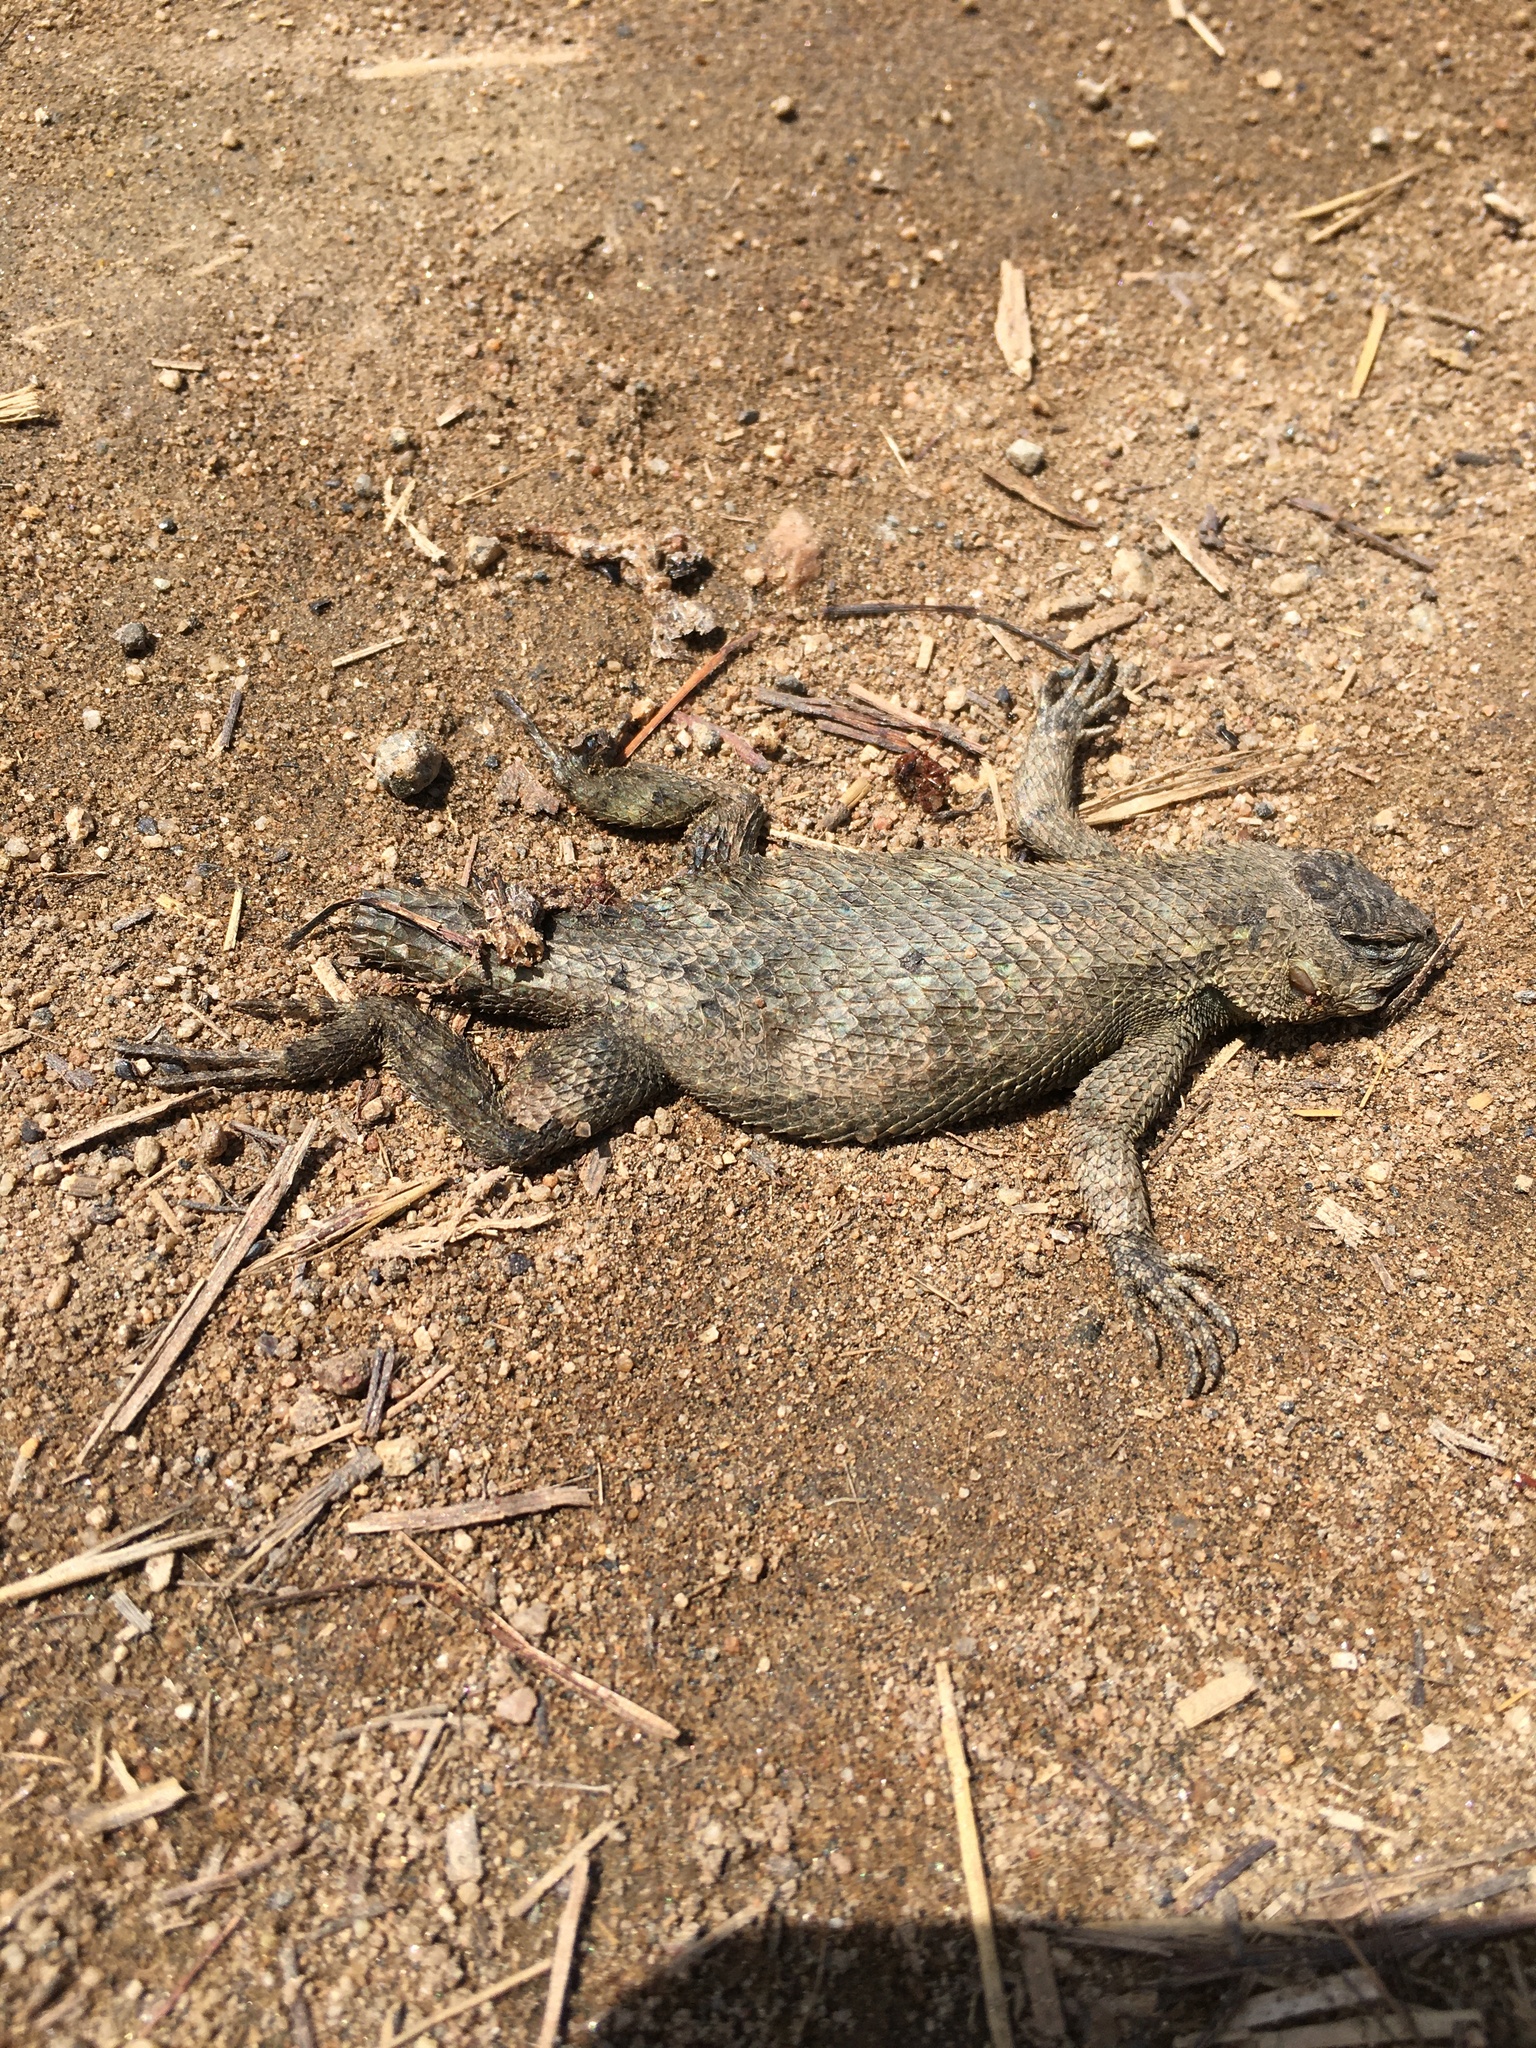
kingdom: Animalia
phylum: Chordata
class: Squamata
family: Phrynosomatidae
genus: Sceloporus
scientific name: Sceloporus occidentalis
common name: Western fence lizard
